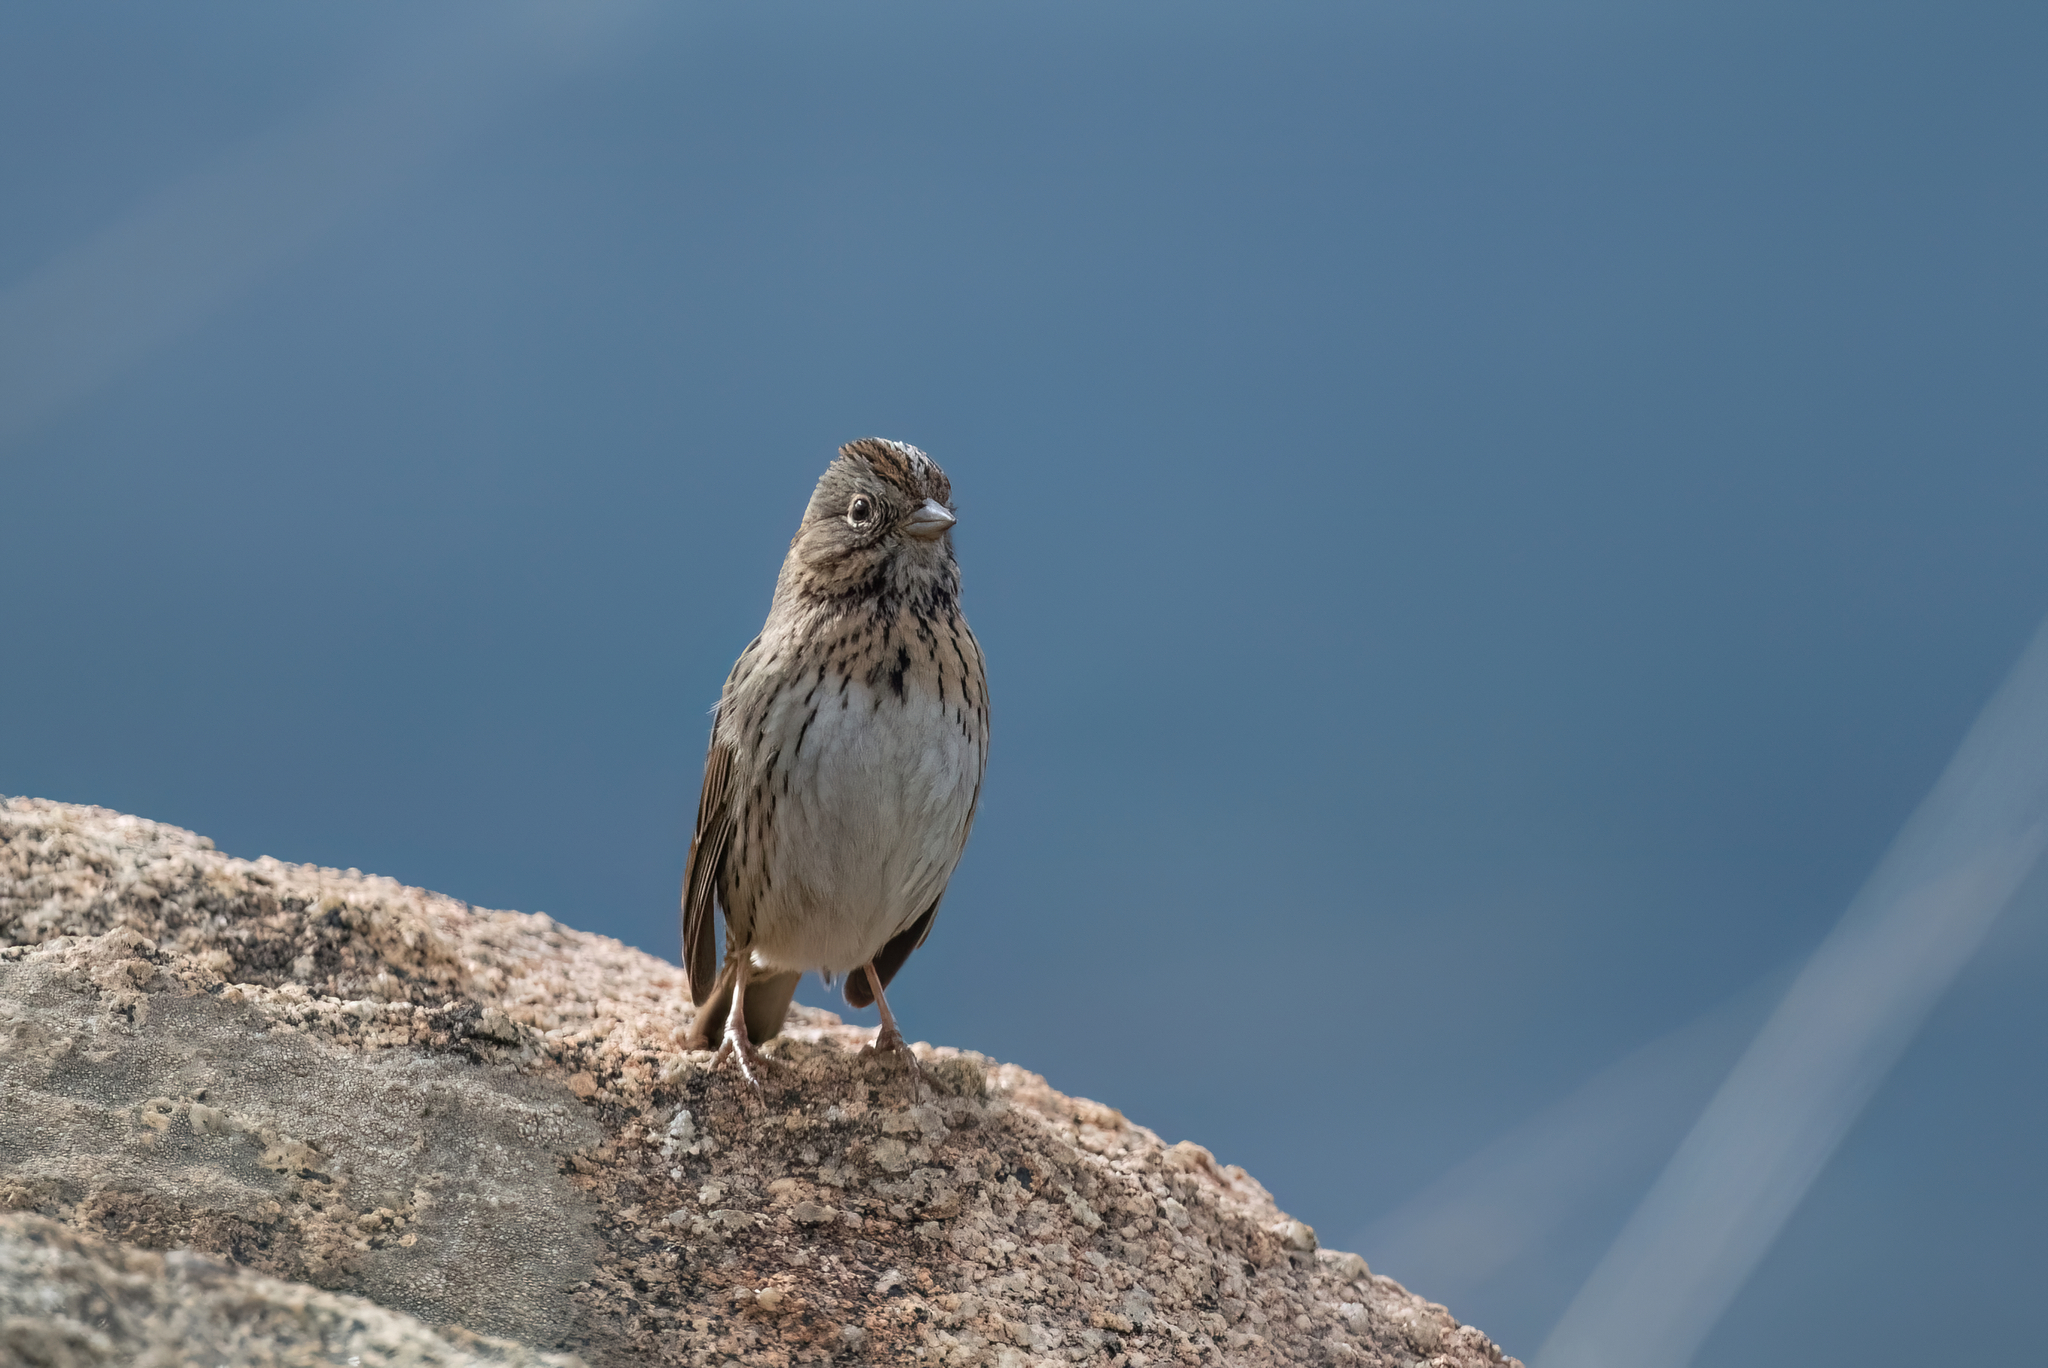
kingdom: Animalia
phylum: Chordata
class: Aves
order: Passeriformes
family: Passerellidae
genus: Melospiza
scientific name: Melospiza lincolnii
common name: Lincoln's sparrow
